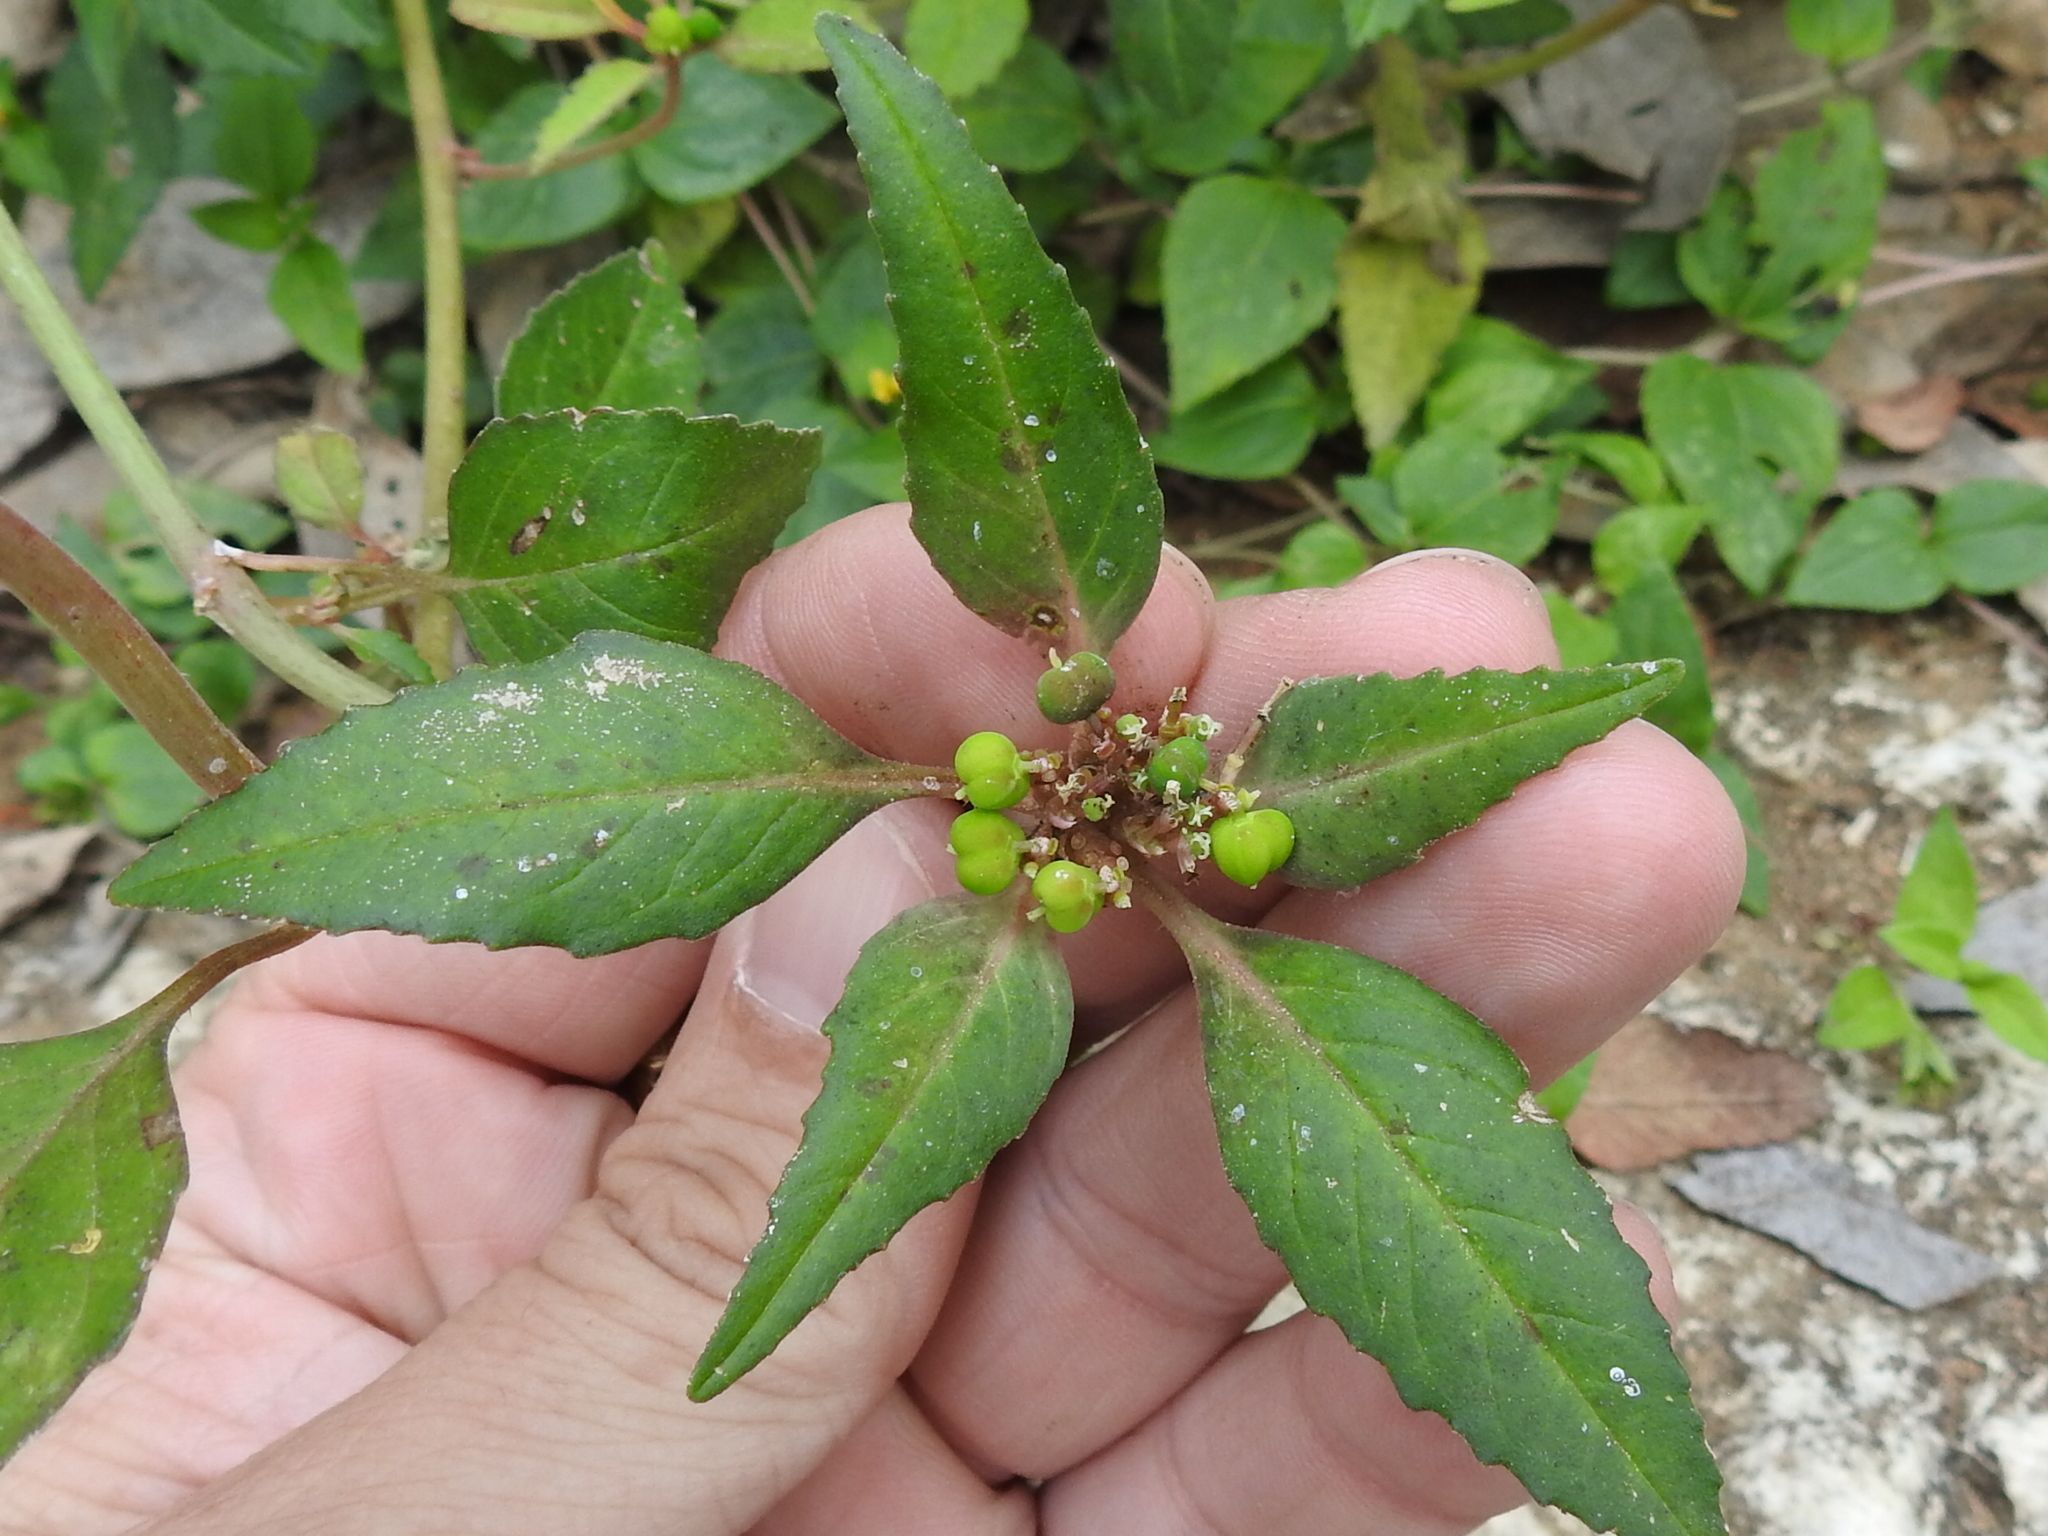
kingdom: Plantae
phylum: Tracheophyta
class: Magnoliopsida
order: Malpighiales
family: Euphorbiaceae
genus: Euphorbia
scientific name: Euphorbia dentata
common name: Dentate spurge
